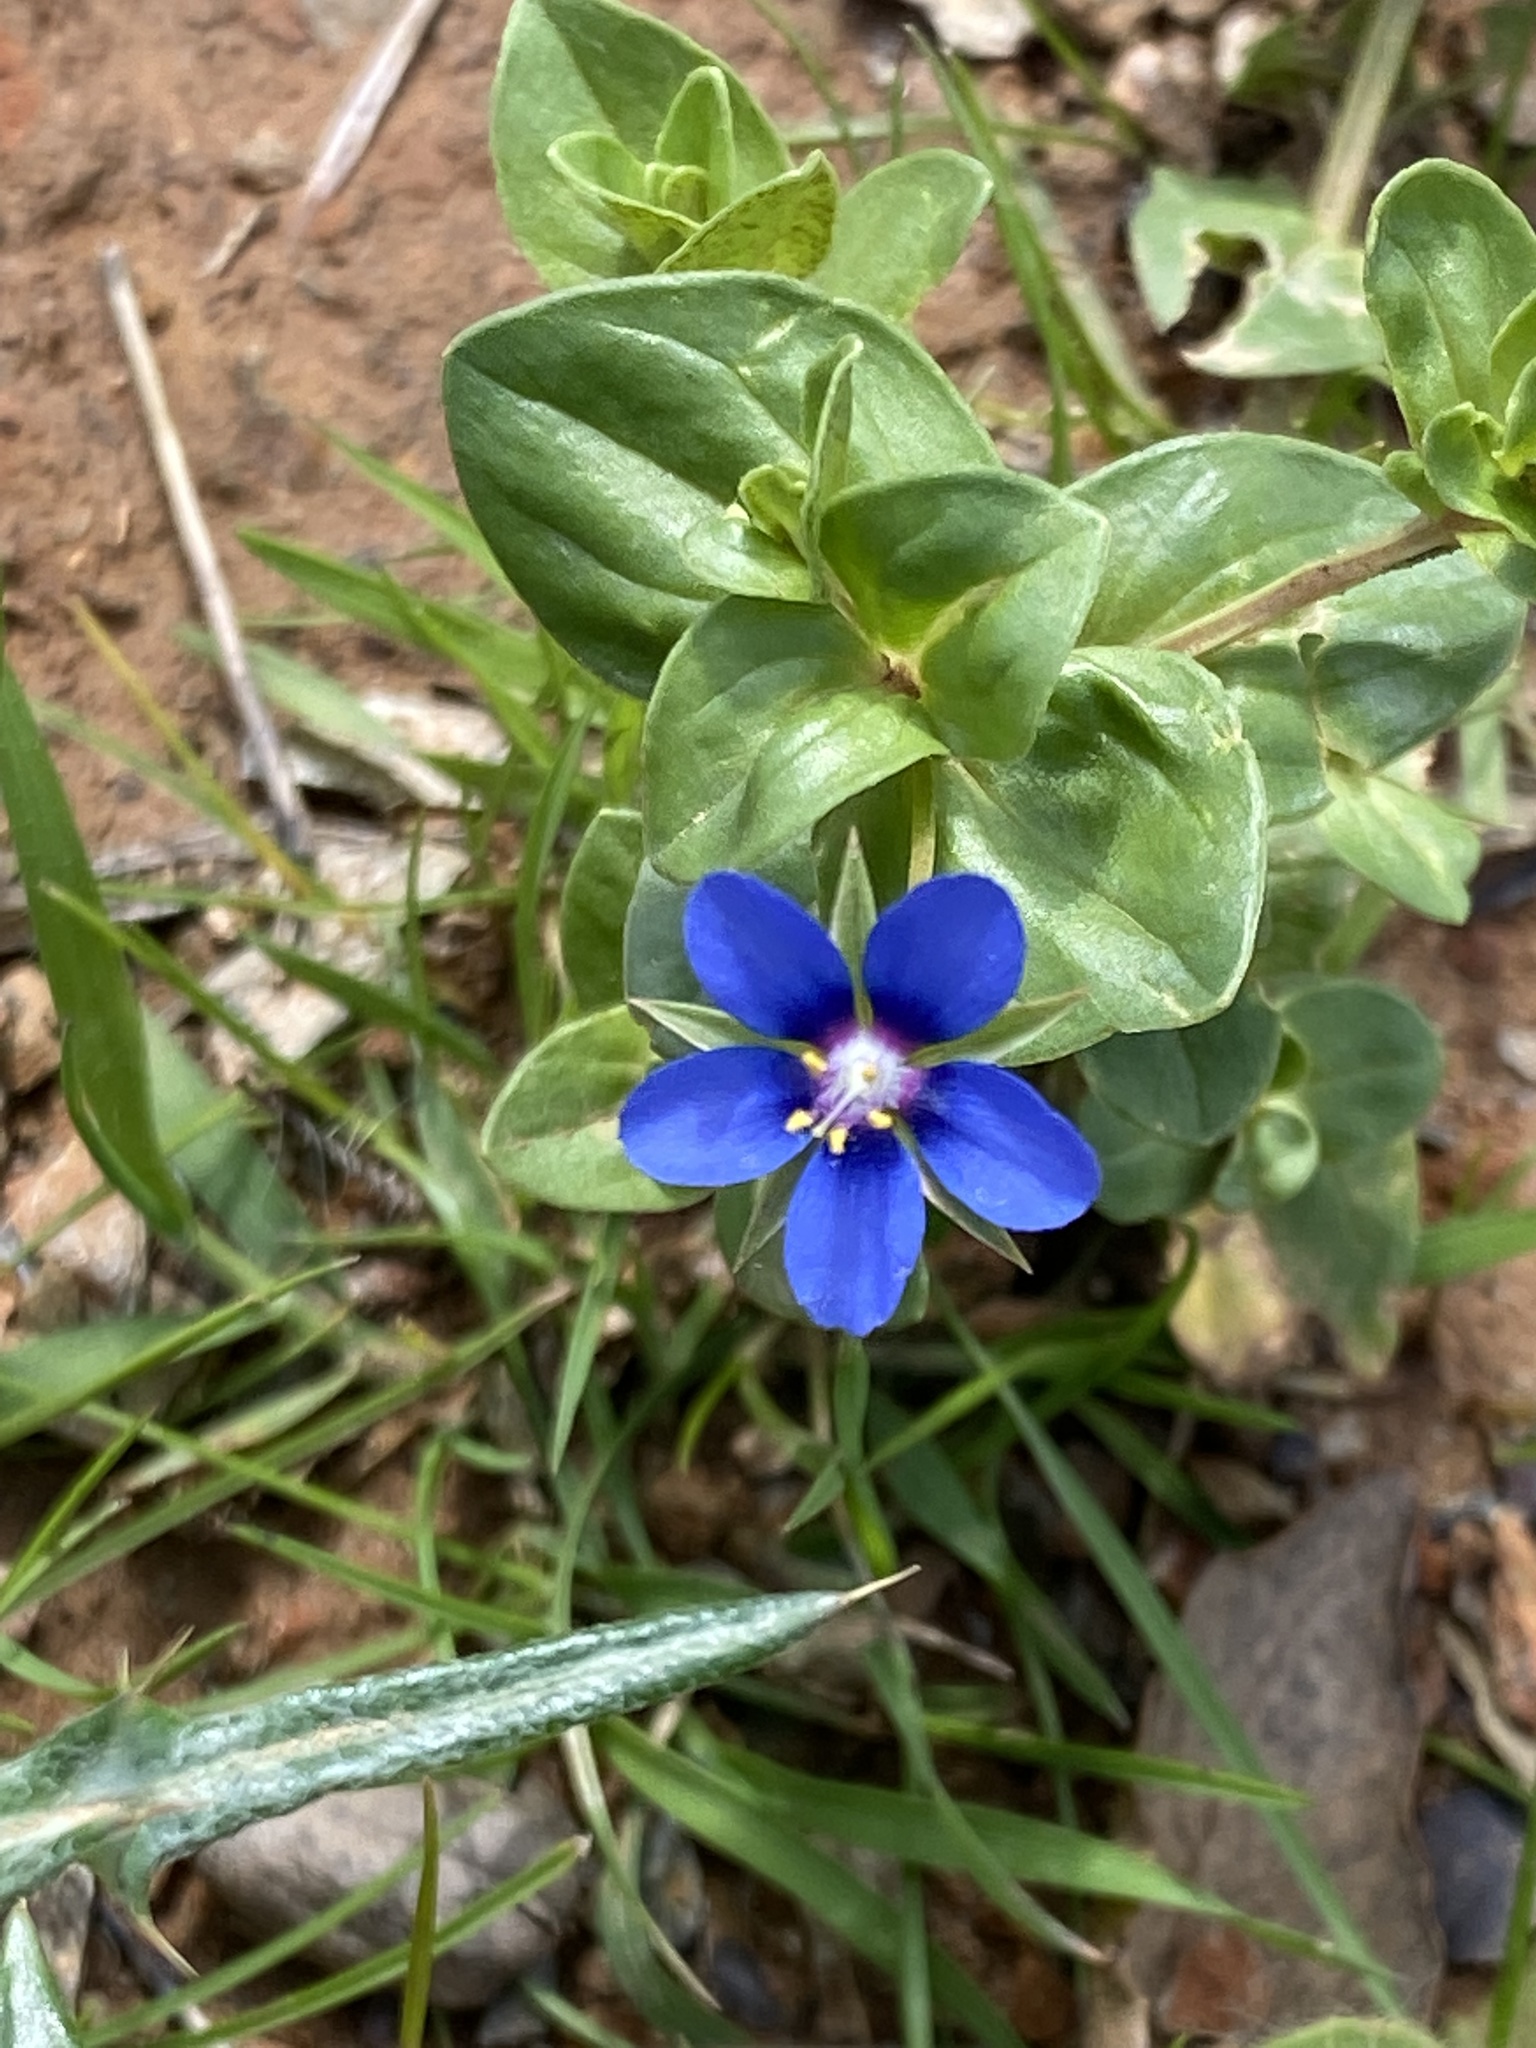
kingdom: Plantae
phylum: Tracheophyta
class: Magnoliopsida
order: Ericales
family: Primulaceae
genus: Lysimachia
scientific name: Lysimachia loeflingii
